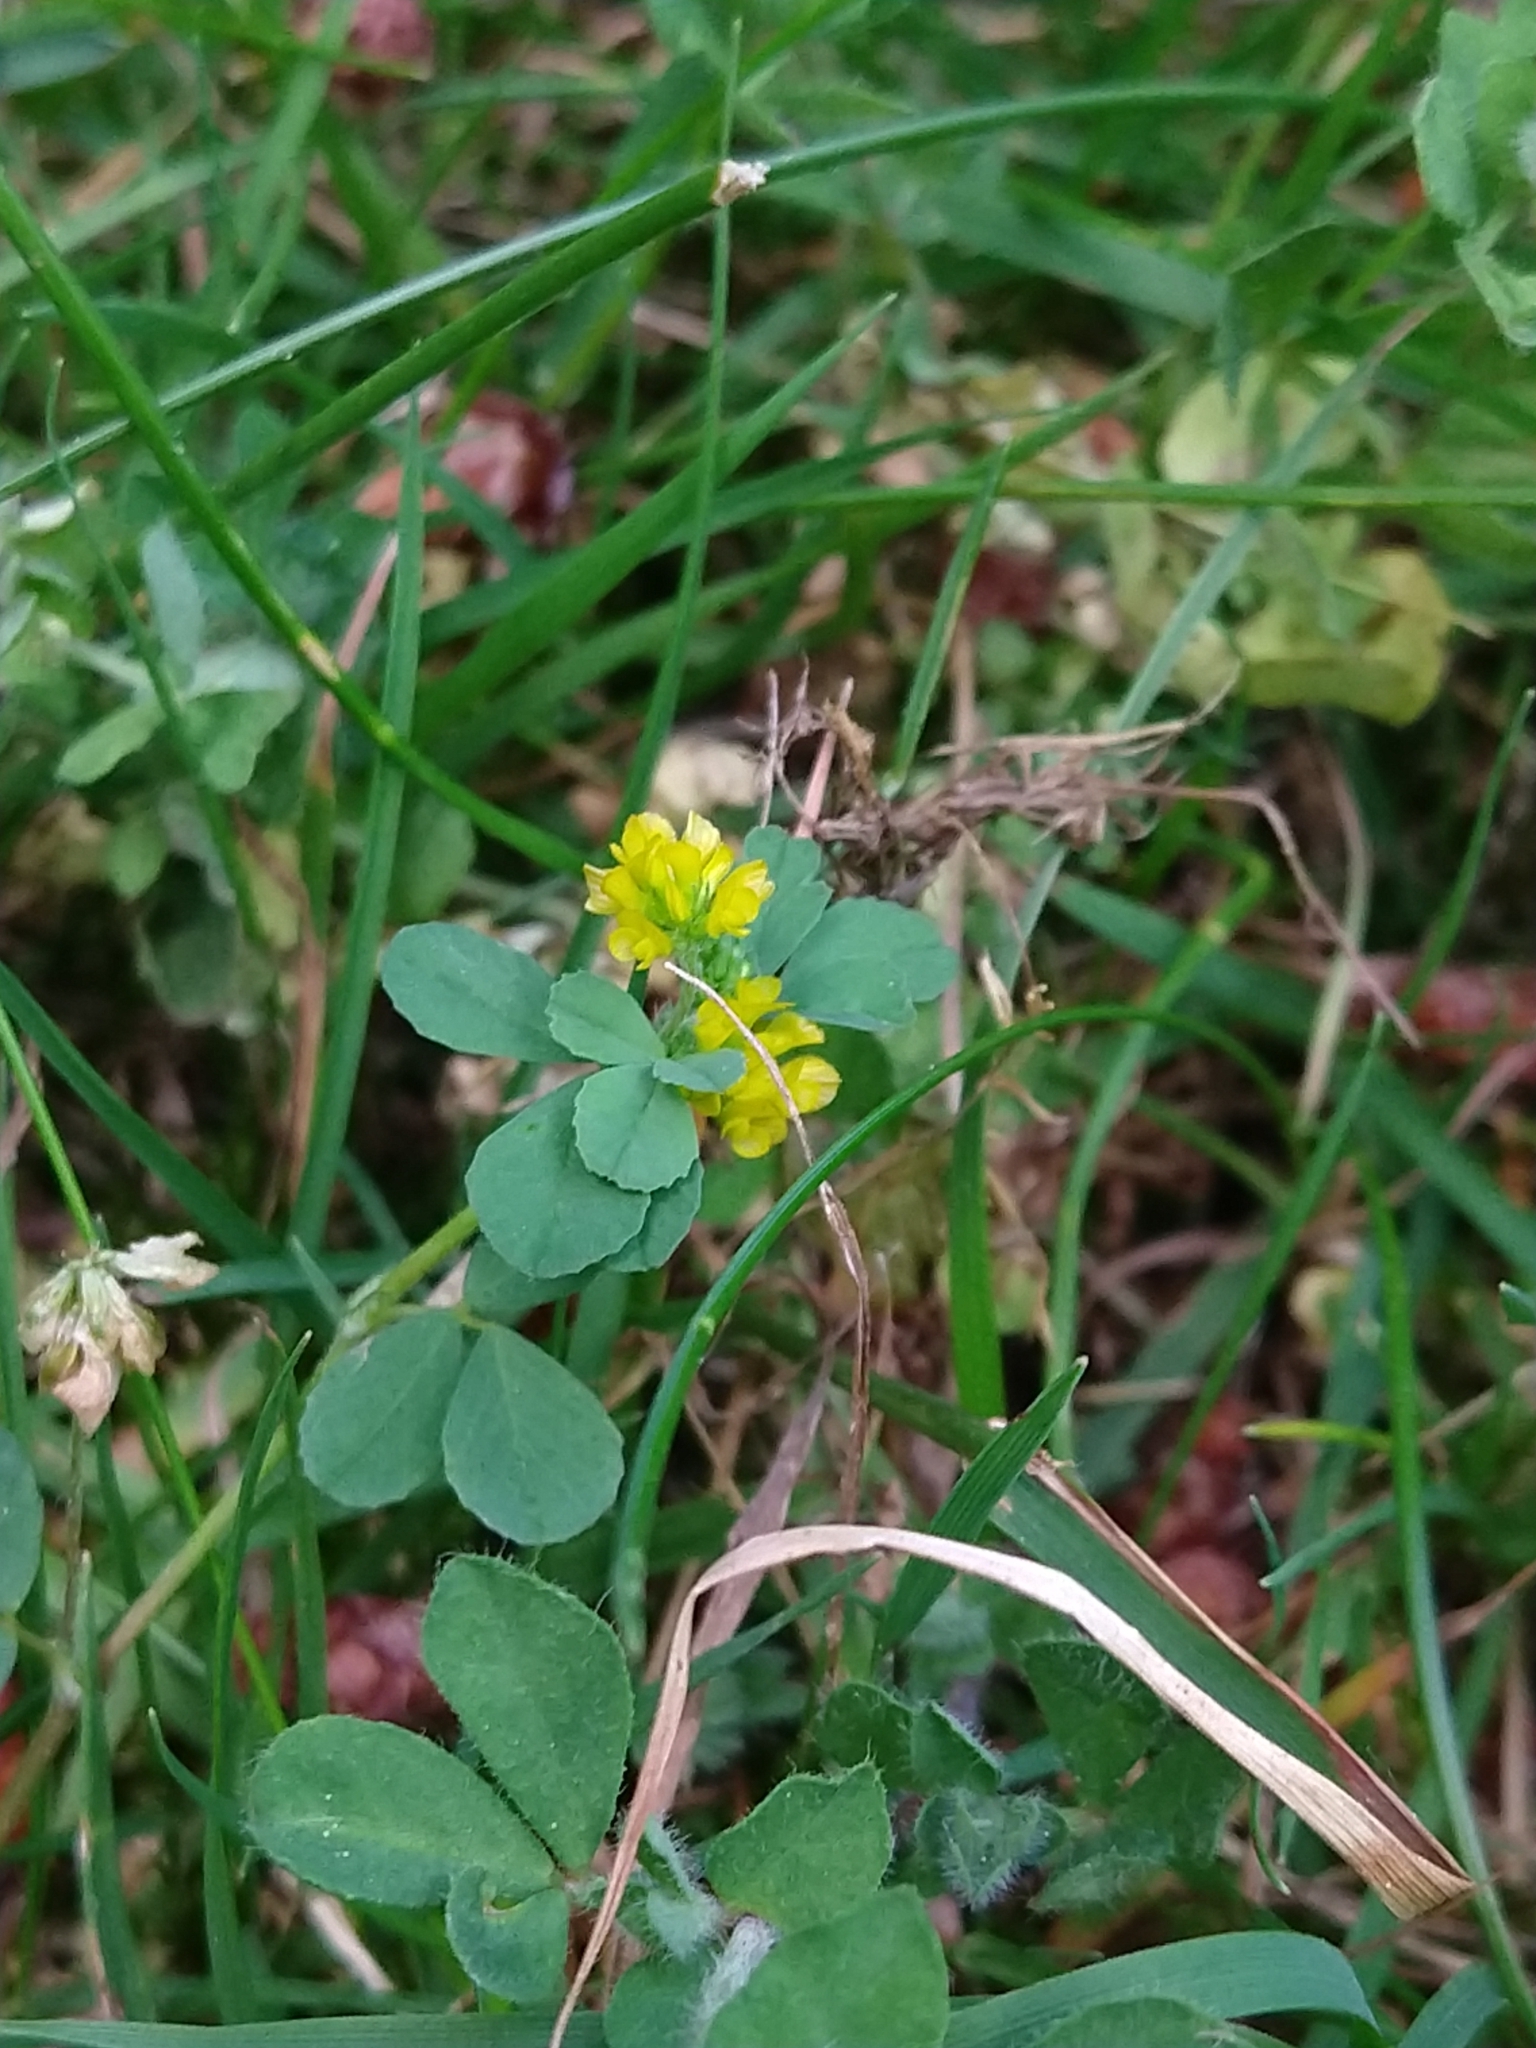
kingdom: Plantae
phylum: Tracheophyta
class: Magnoliopsida
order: Fabales
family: Fabaceae
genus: Trifolium
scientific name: Trifolium dubium
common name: Suckling clover
